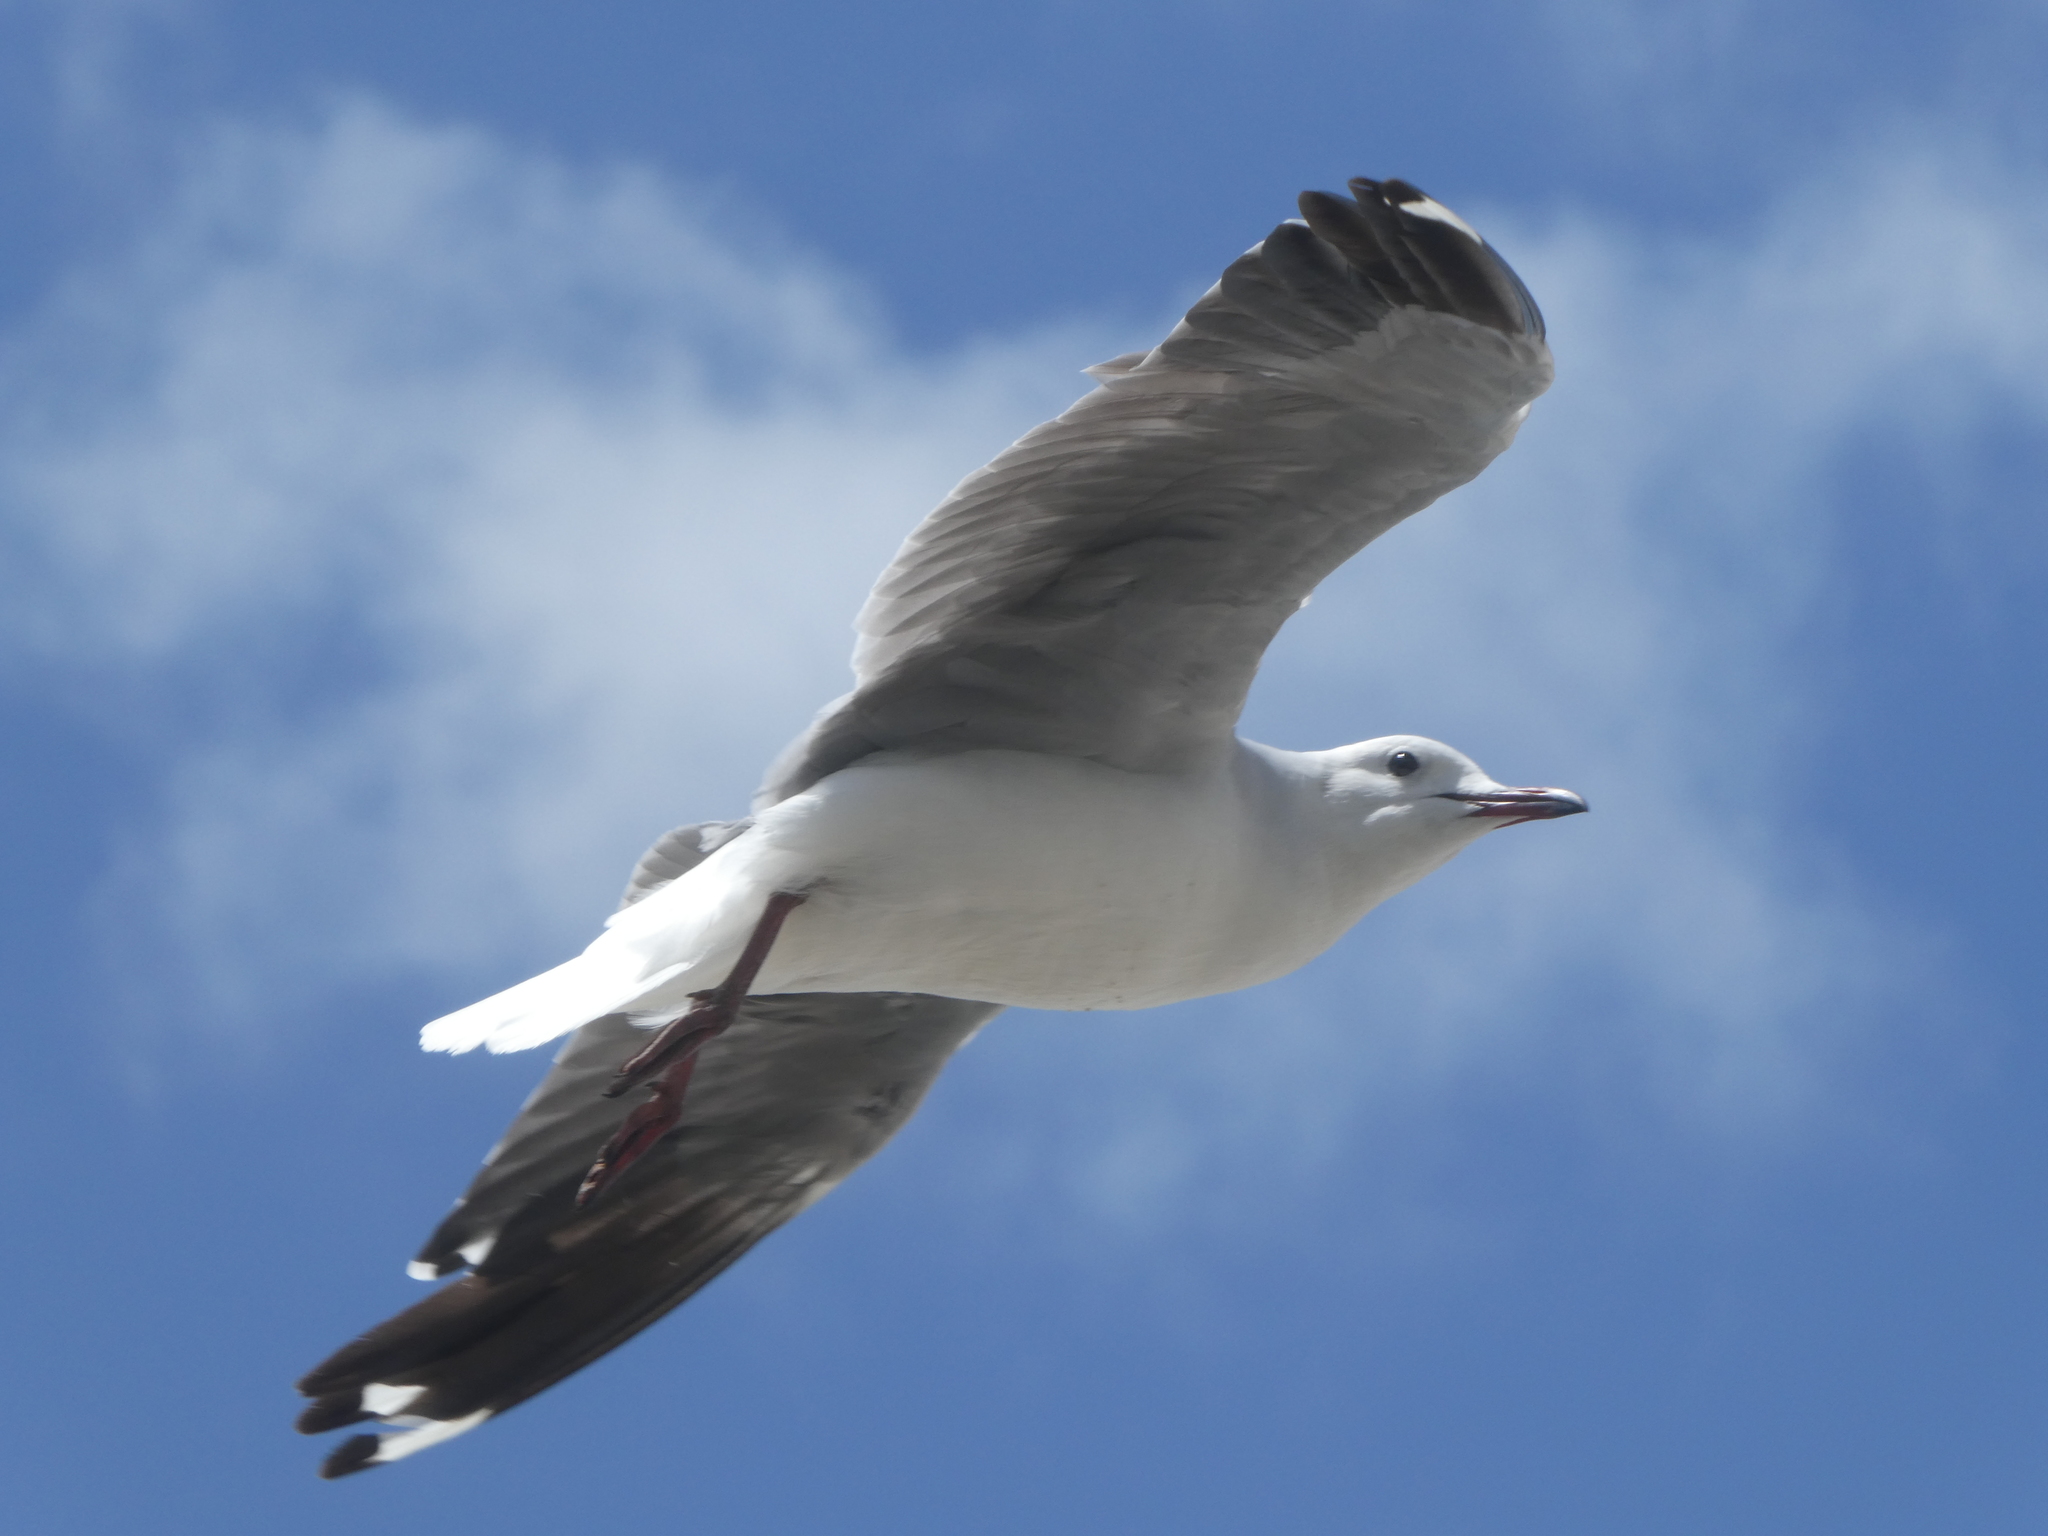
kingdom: Animalia
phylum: Chordata
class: Aves
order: Charadriiformes
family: Laridae
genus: Chroicocephalus
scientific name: Chroicocephalus hartlaubii
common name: Hartlaub's gull
